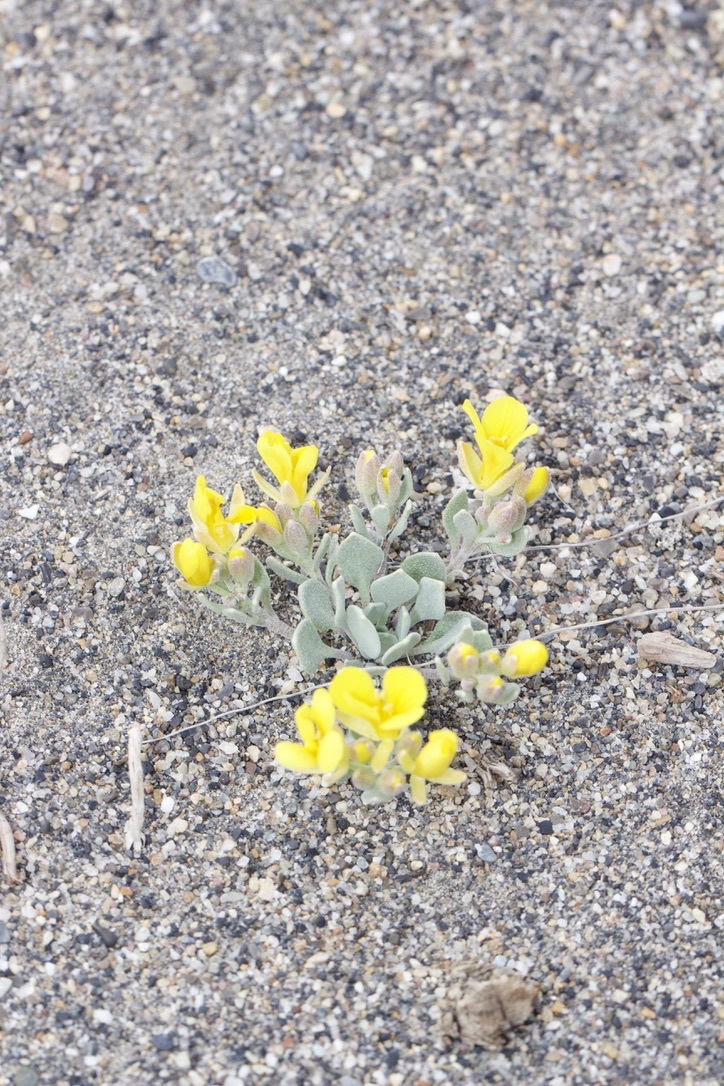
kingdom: Plantae
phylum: Tracheophyta
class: Magnoliopsida
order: Brassicales
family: Brassicaceae
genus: Physaria
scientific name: Physaria didymocarpa
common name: Common twinpod
